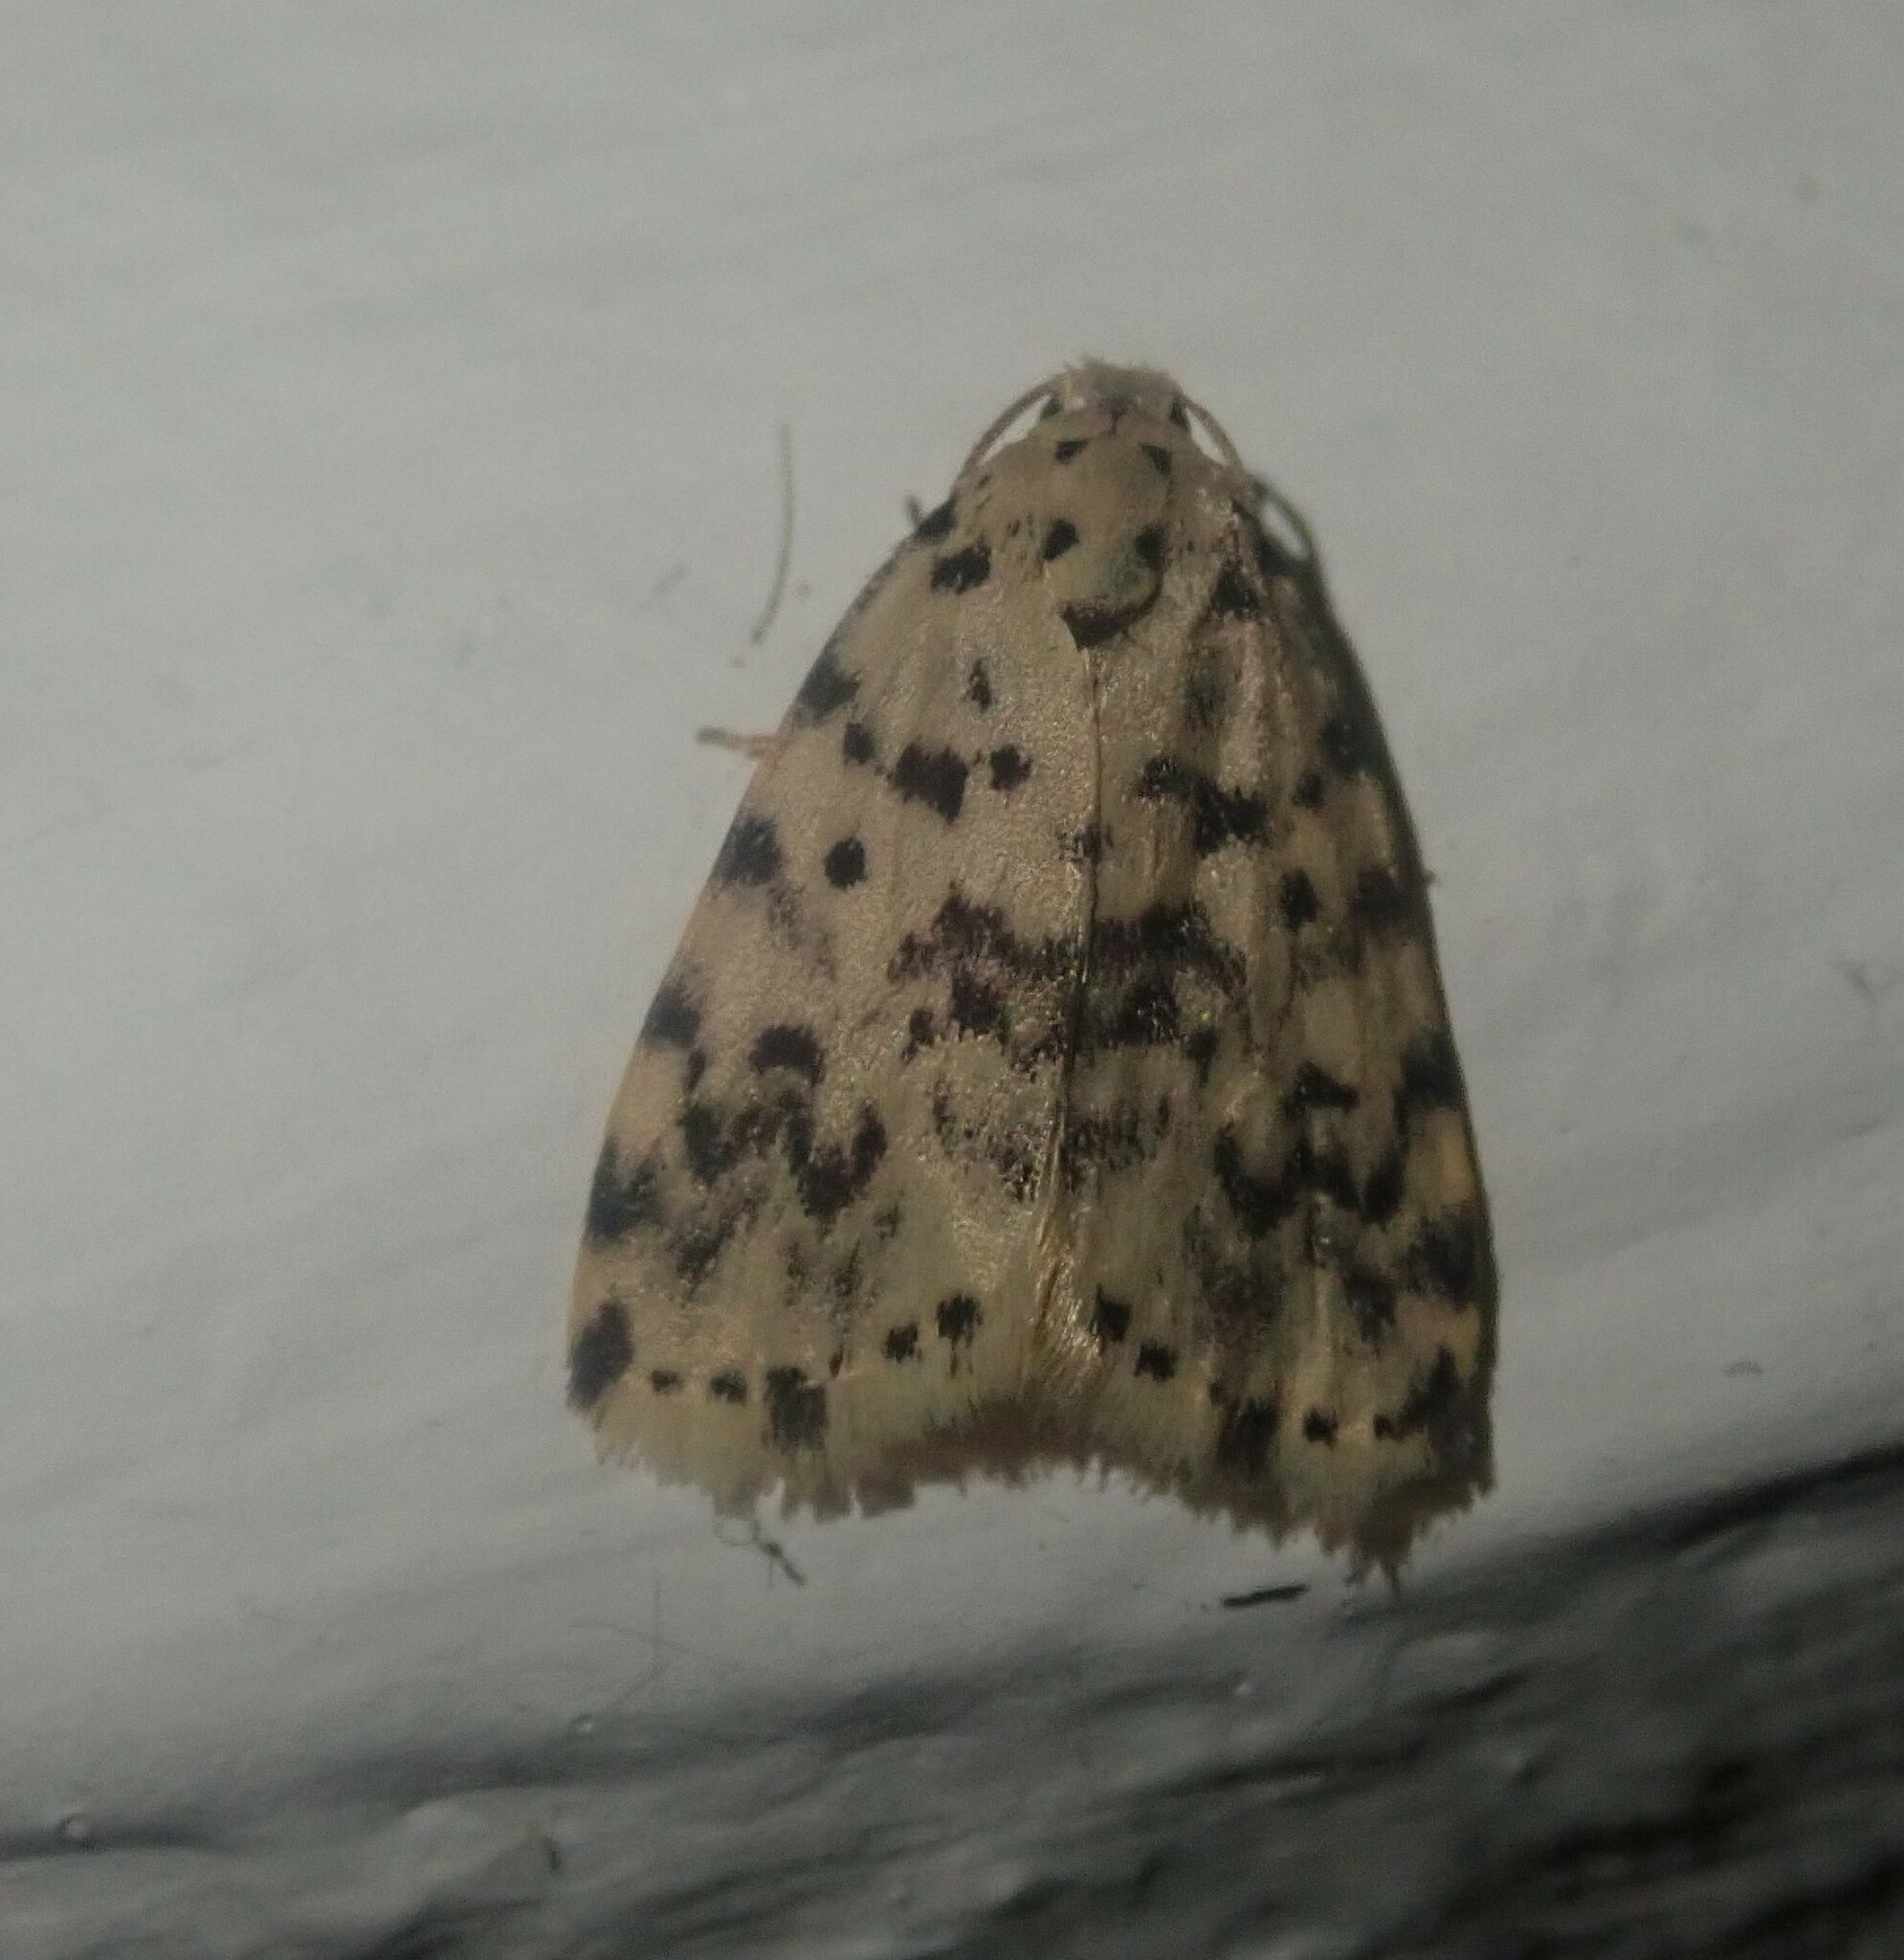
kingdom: Animalia
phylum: Arthropoda
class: Insecta
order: Lepidoptera
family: Erebidae
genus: Siccia
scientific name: Siccia sordida
